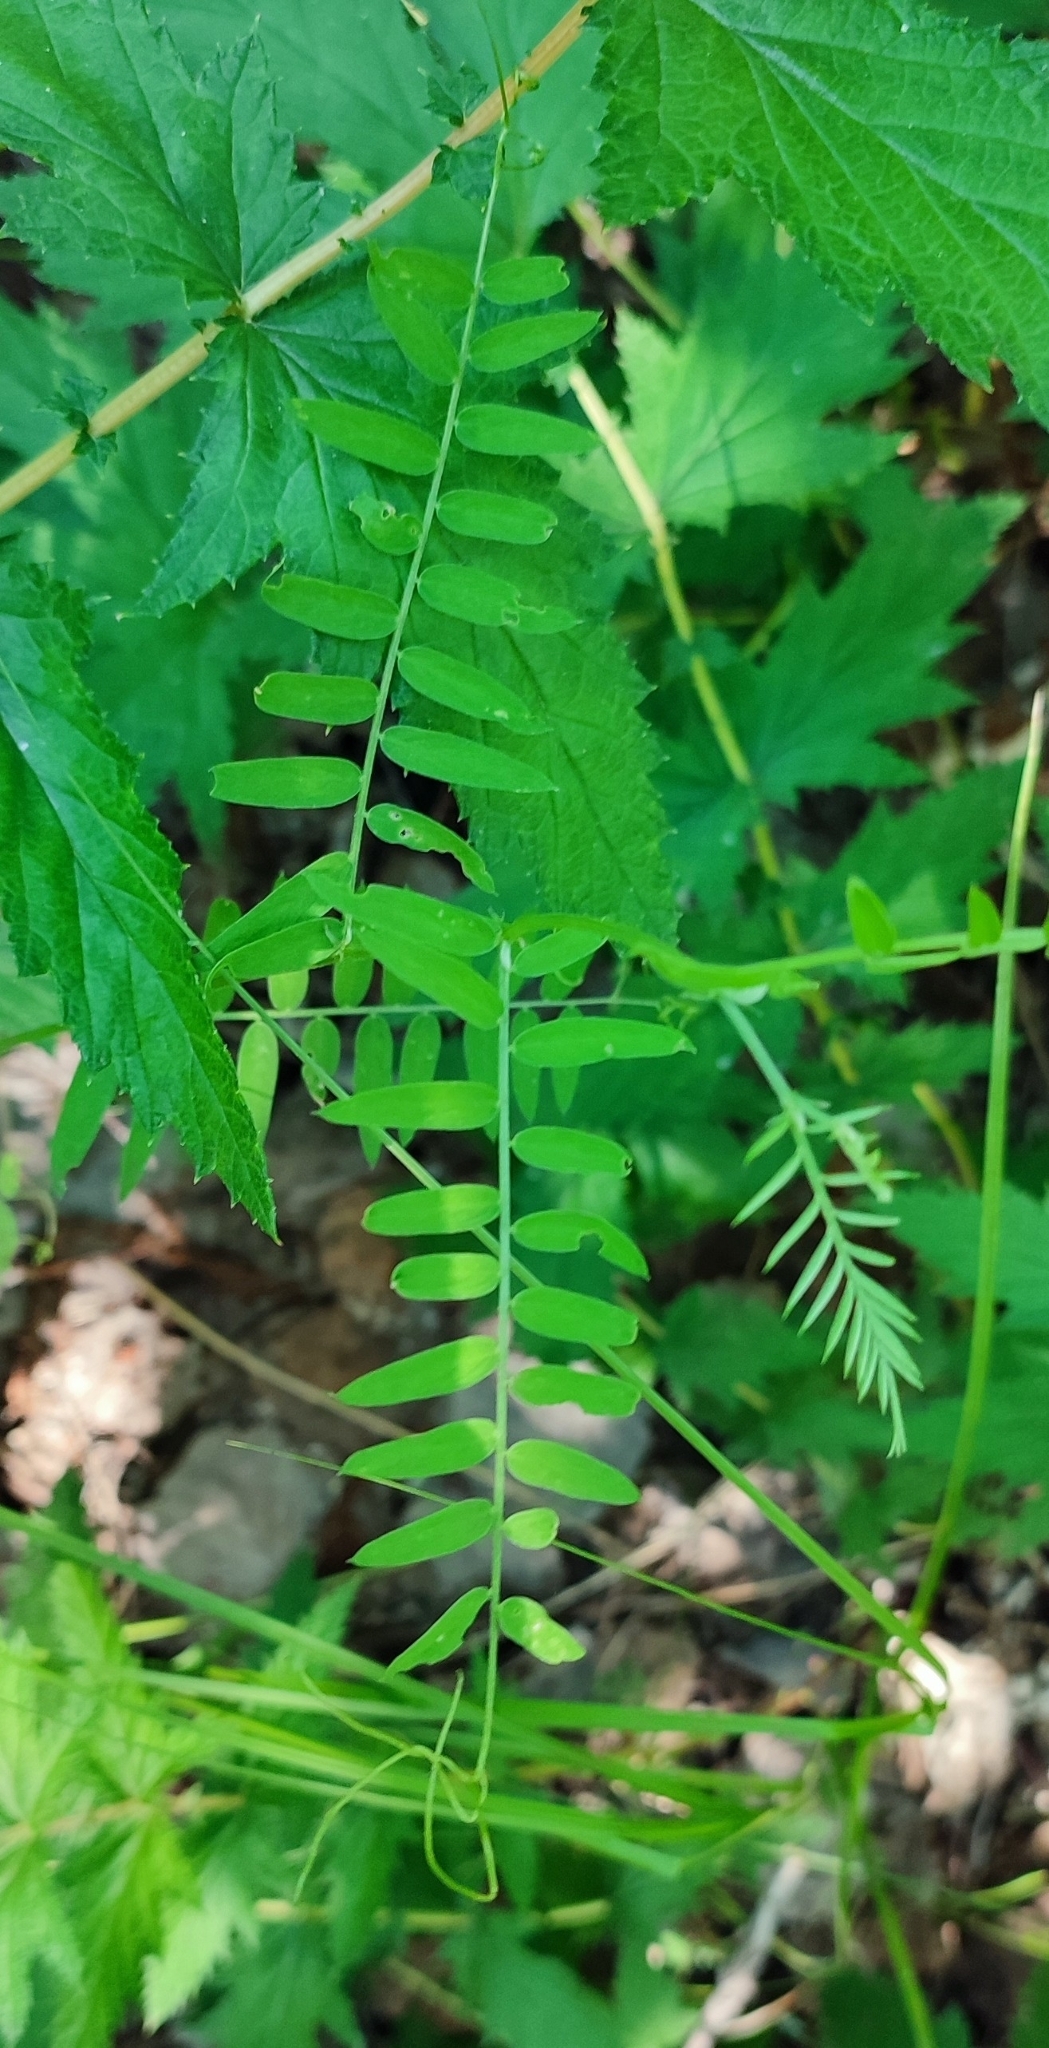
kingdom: Plantae
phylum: Tracheophyta
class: Magnoliopsida
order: Fabales
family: Fabaceae
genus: Vicia
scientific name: Vicia cracca
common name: Bird vetch
